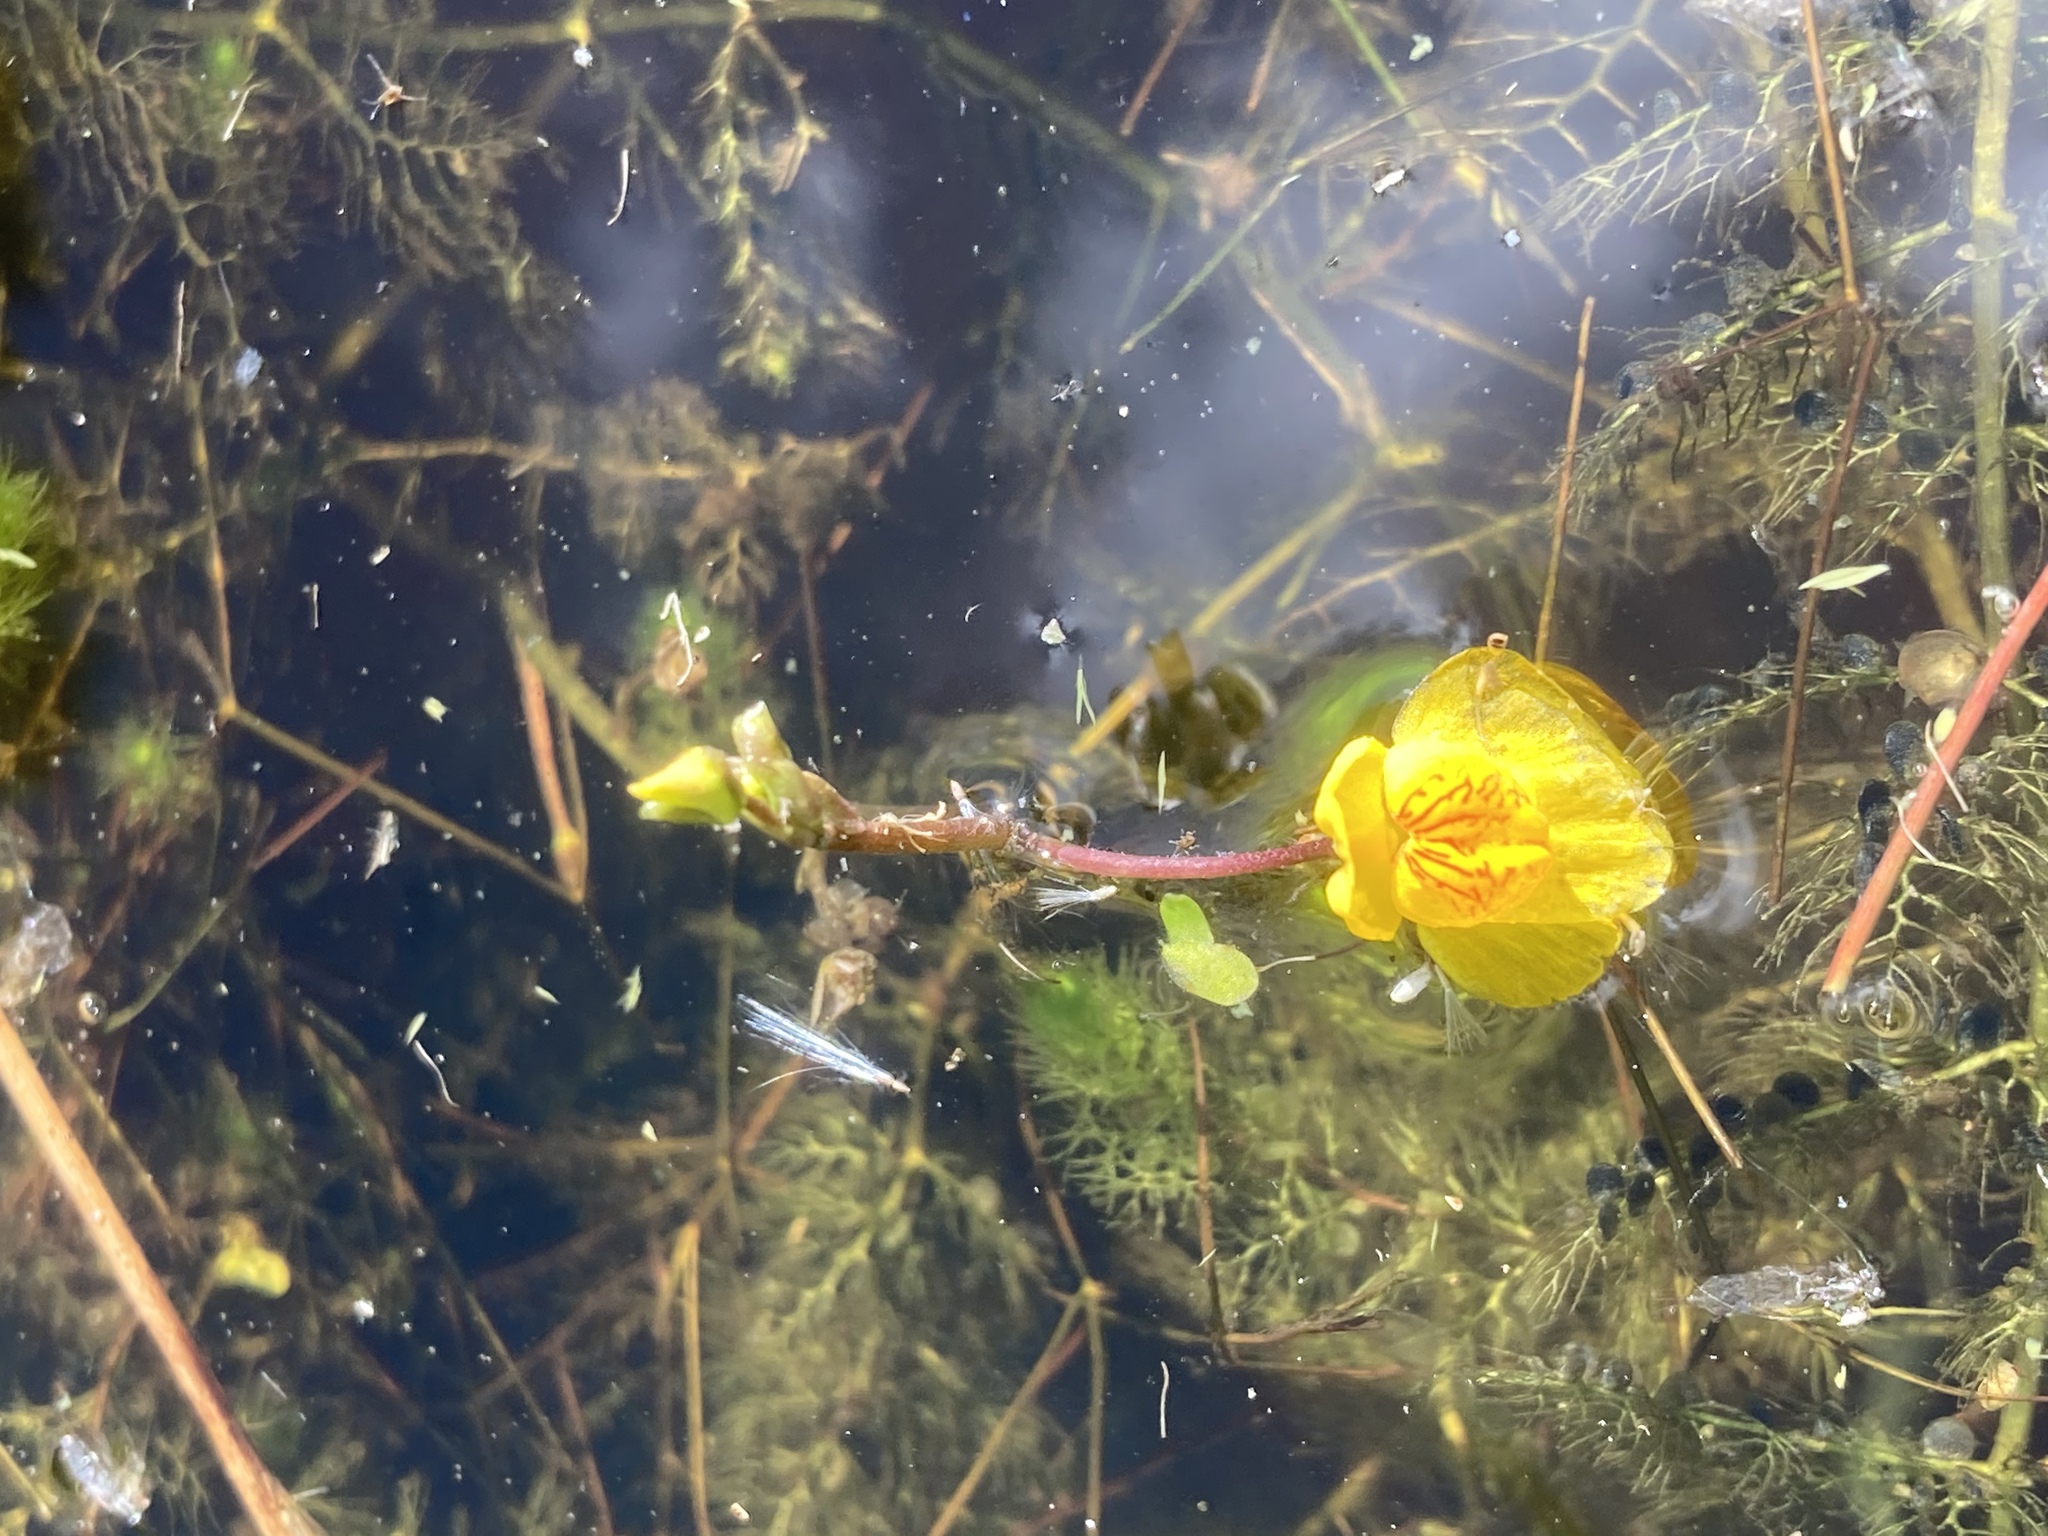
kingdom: Plantae
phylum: Tracheophyta
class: Magnoliopsida
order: Lamiales
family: Lentibulariaceae
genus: Utricularia
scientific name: Utricularia australis
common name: Bladderwort
